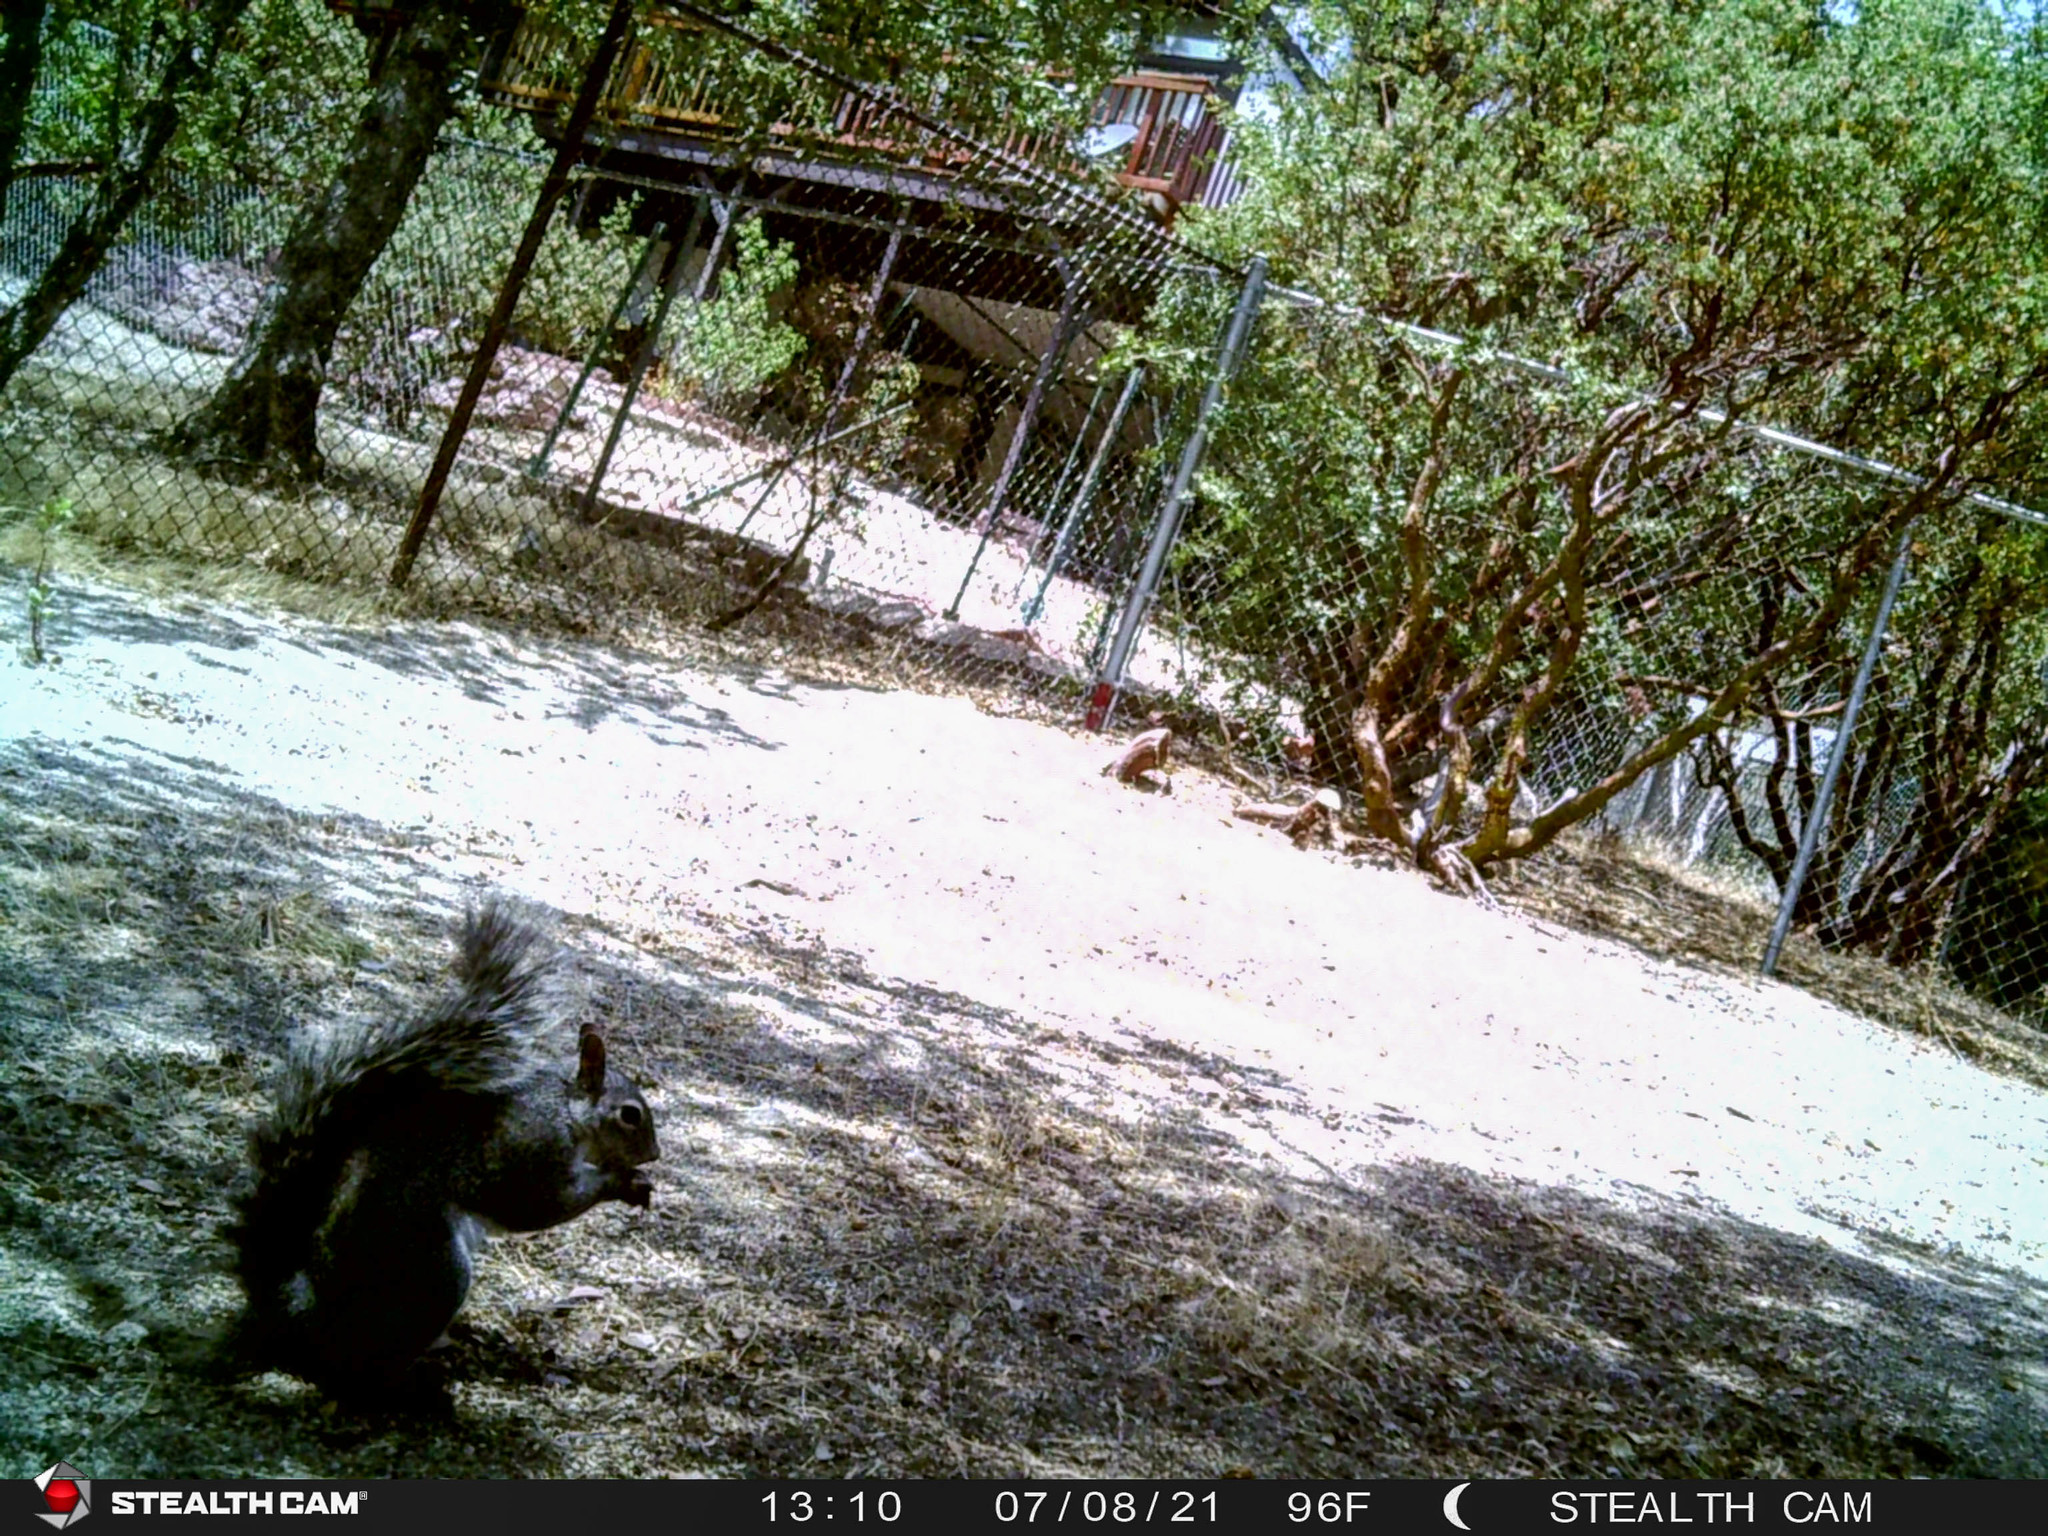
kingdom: Animalia
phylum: Chordata
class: Mammalia
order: Rodentia
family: Sciuridae
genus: Sciurus
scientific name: Sciurus griseus
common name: Western gray squirrel
